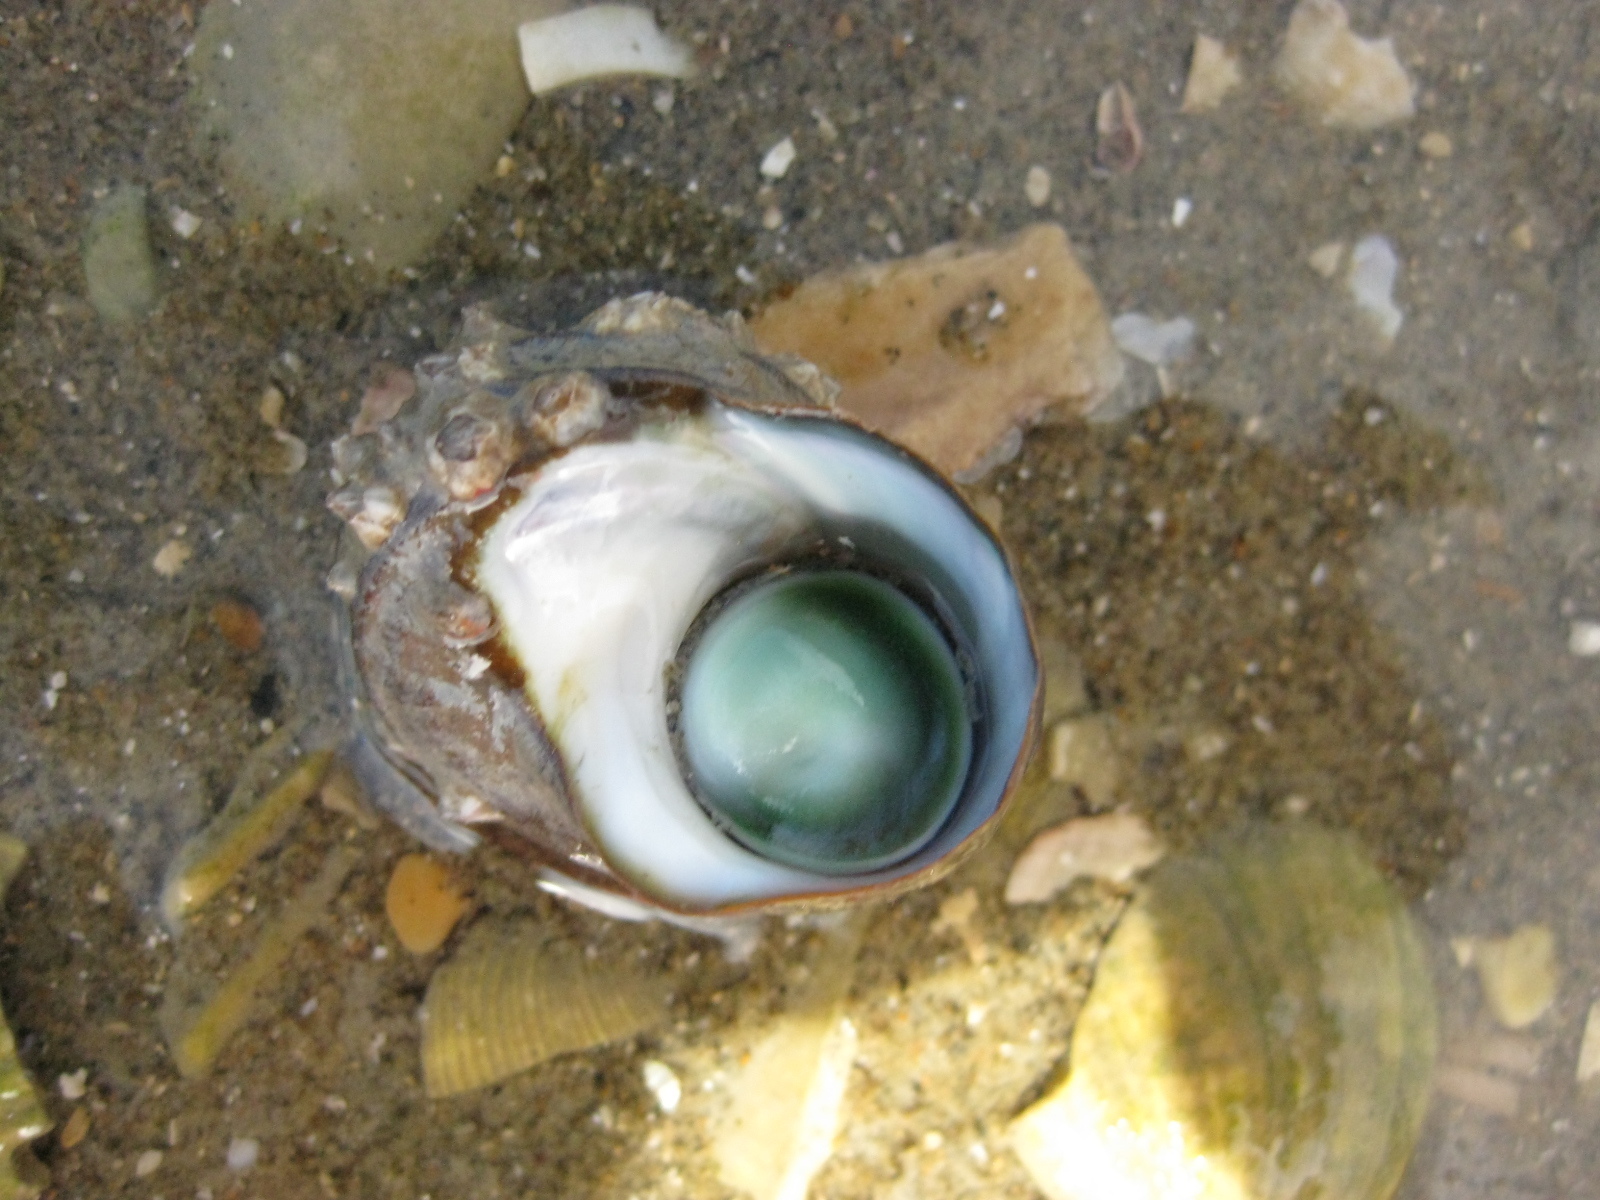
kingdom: Animalia
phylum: Mollusca
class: Gastropoda
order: Trochida
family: Turbinidae
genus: Lunella
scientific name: Lunella smaragda
